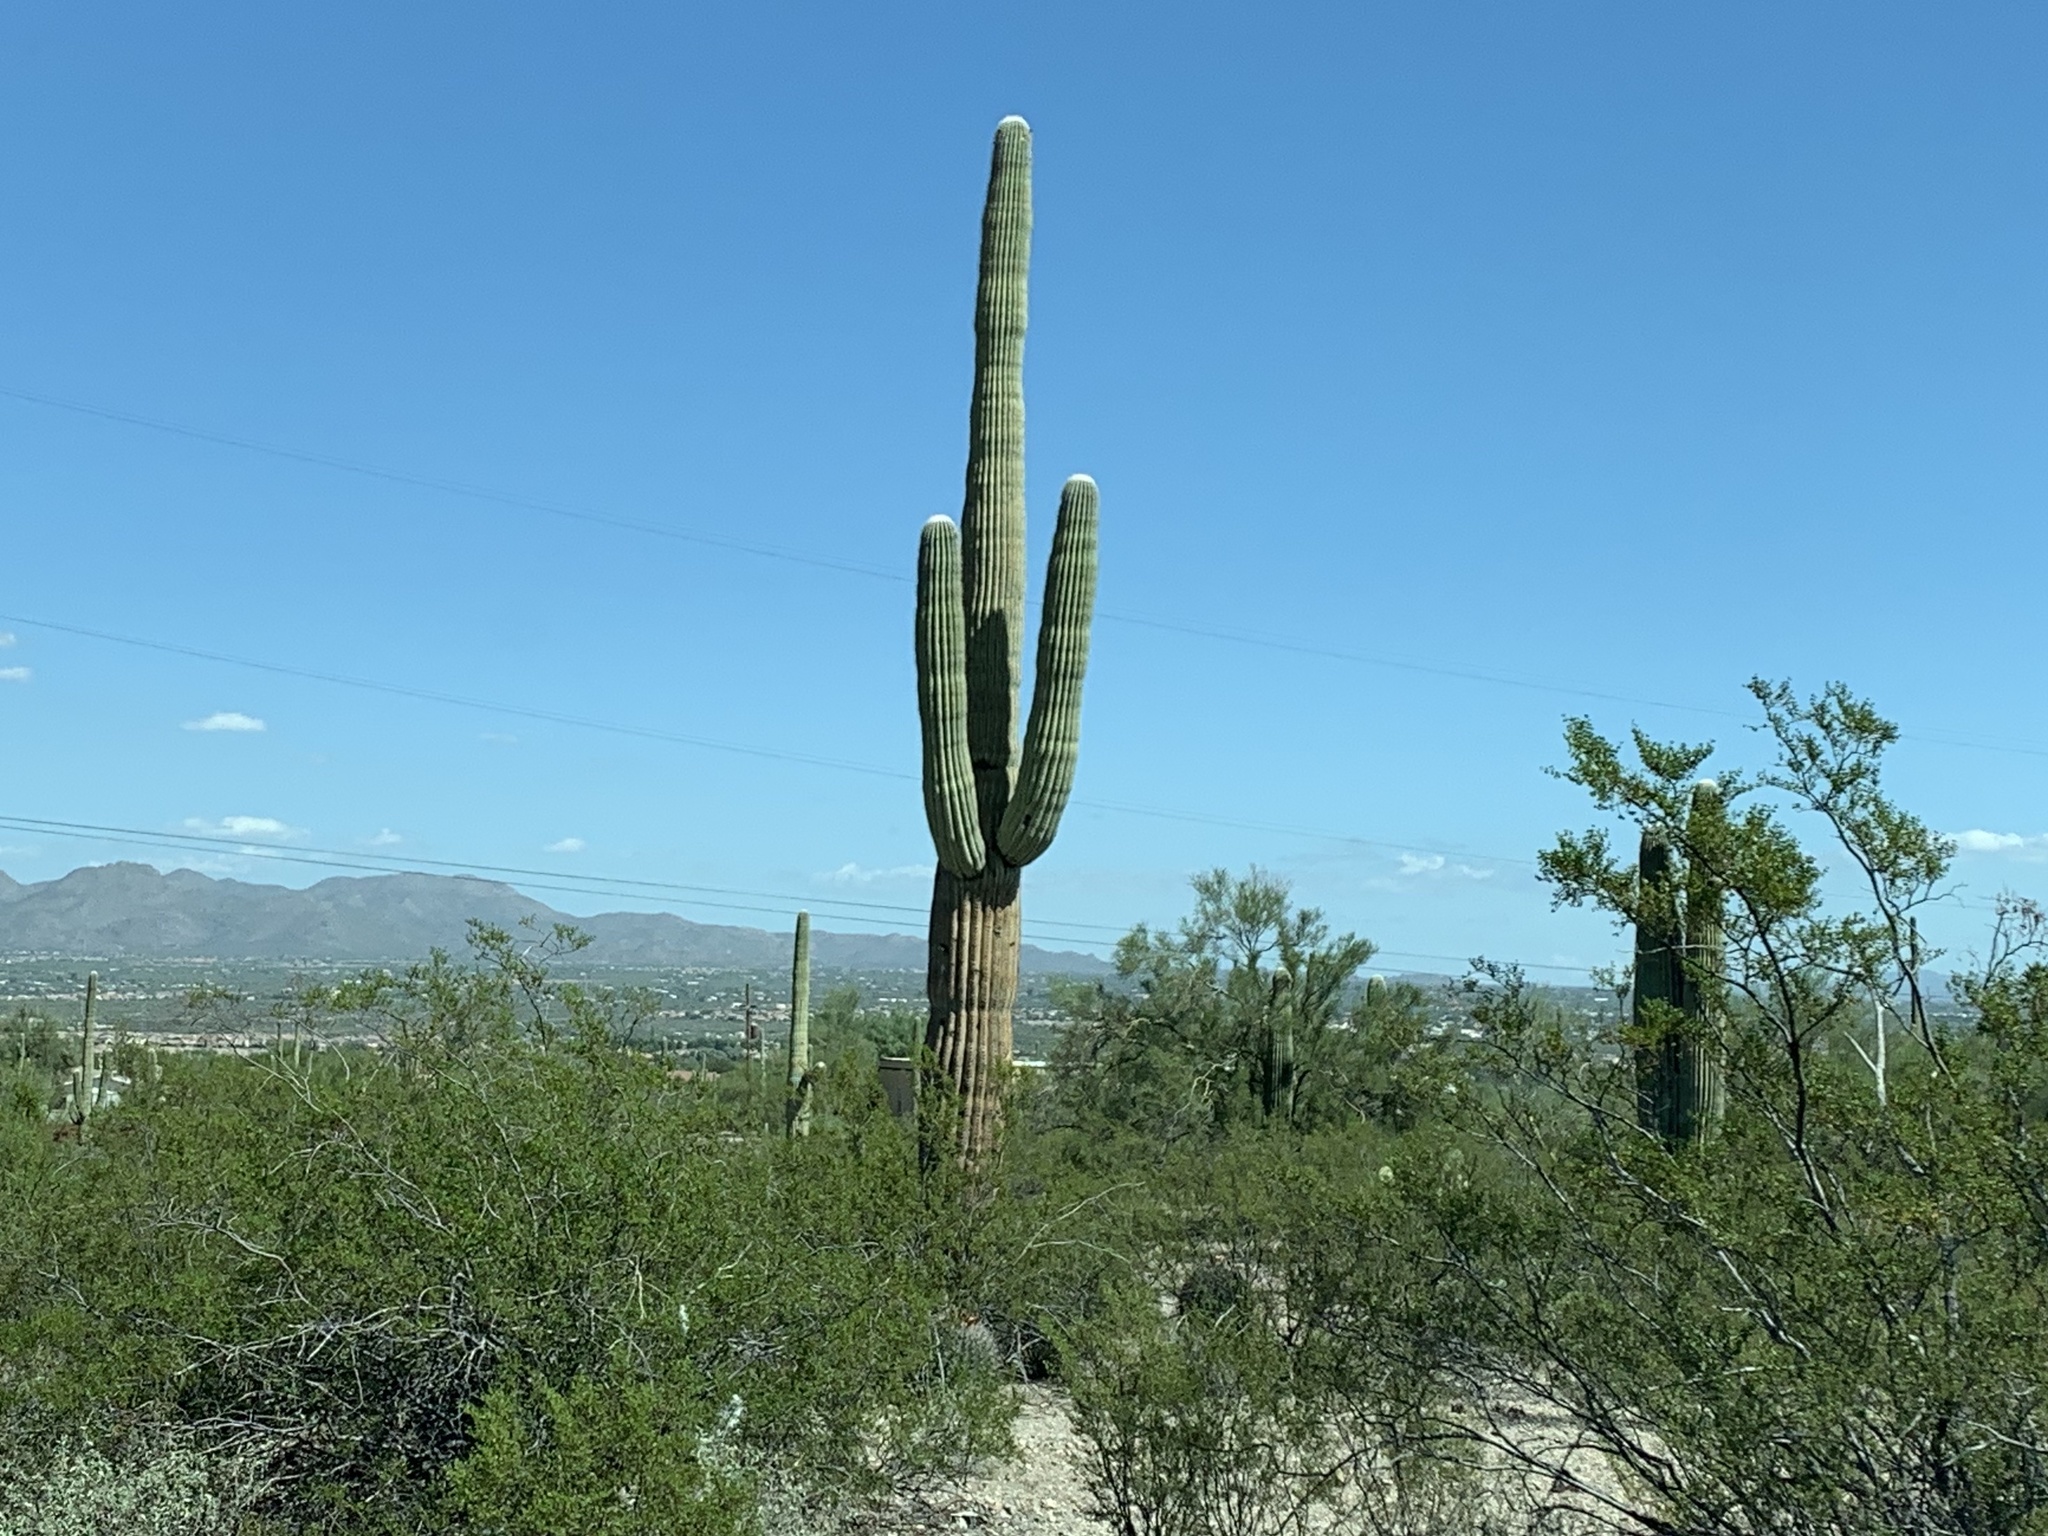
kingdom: Plantae
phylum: Tracheophyta
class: Magnoliopsida
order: Caryophyllales
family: Cactaceae
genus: Carnegiea
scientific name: Carnegiea gigantea
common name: Saguaro
